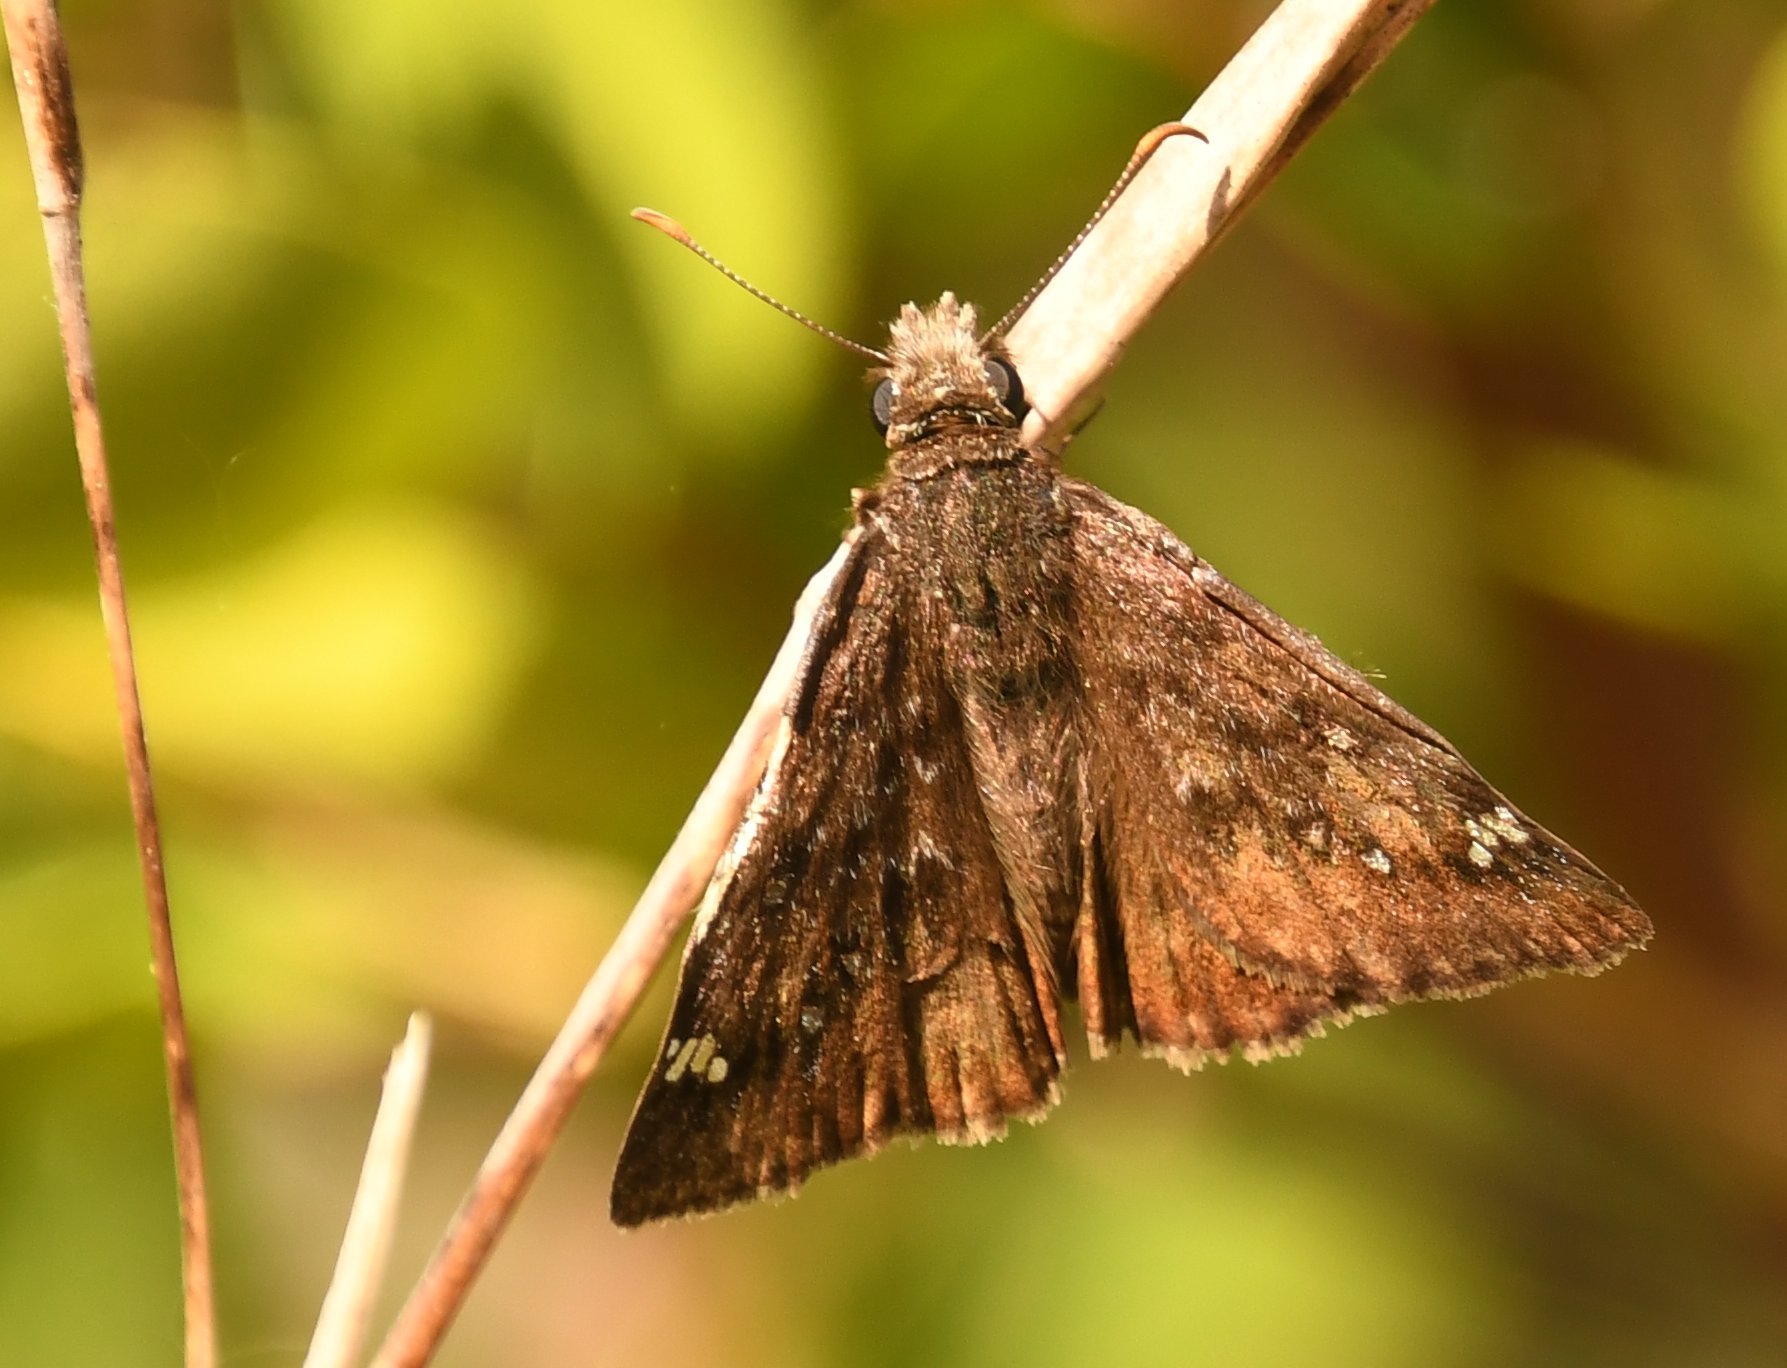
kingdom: Animalia
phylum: Arthropoda
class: Insecta
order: Lepidoptera
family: Hesperiidae
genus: Erynnis
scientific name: Erynnis horatius
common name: Horace's duskywing
